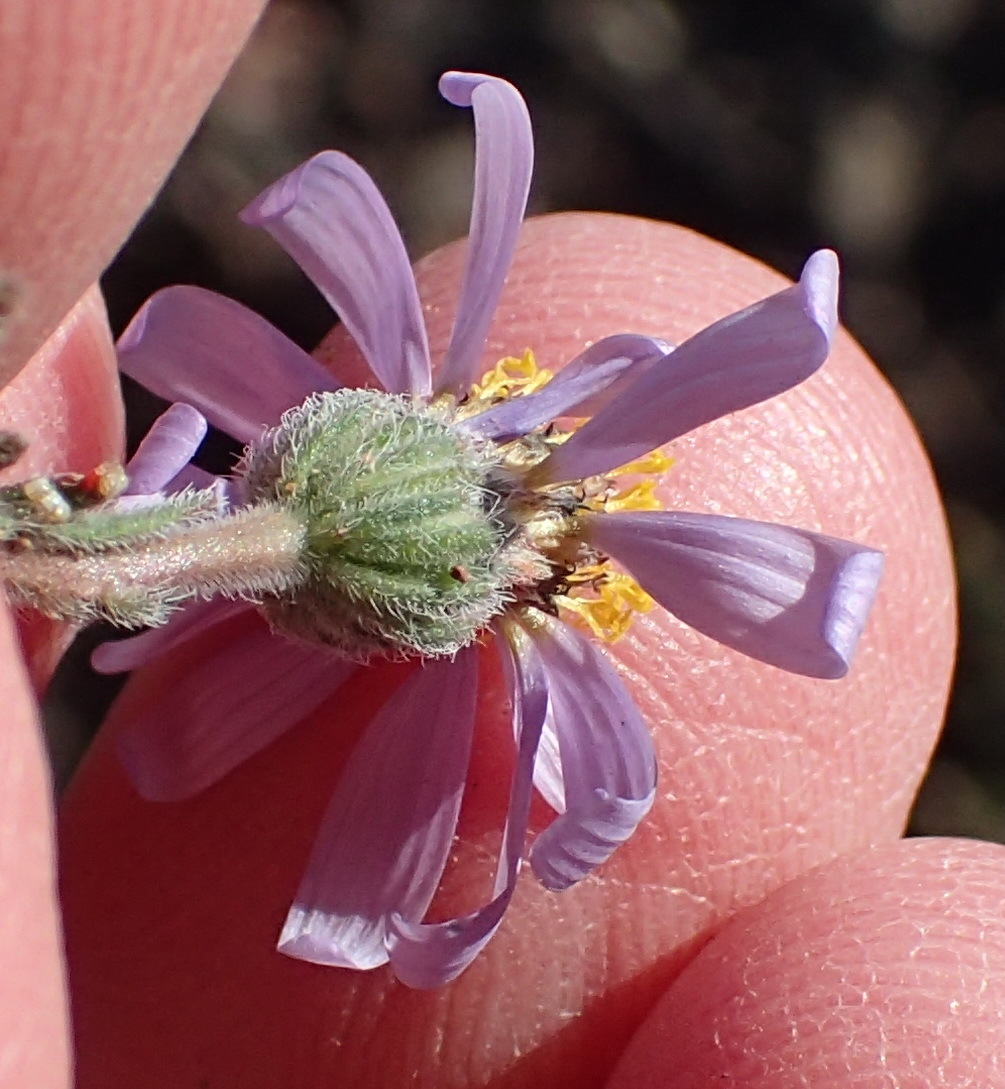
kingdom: Plantae
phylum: Tracheophyta
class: Magnoliopsida
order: Asterales
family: Asteraceae
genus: Amellus
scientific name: Amellus nanus
